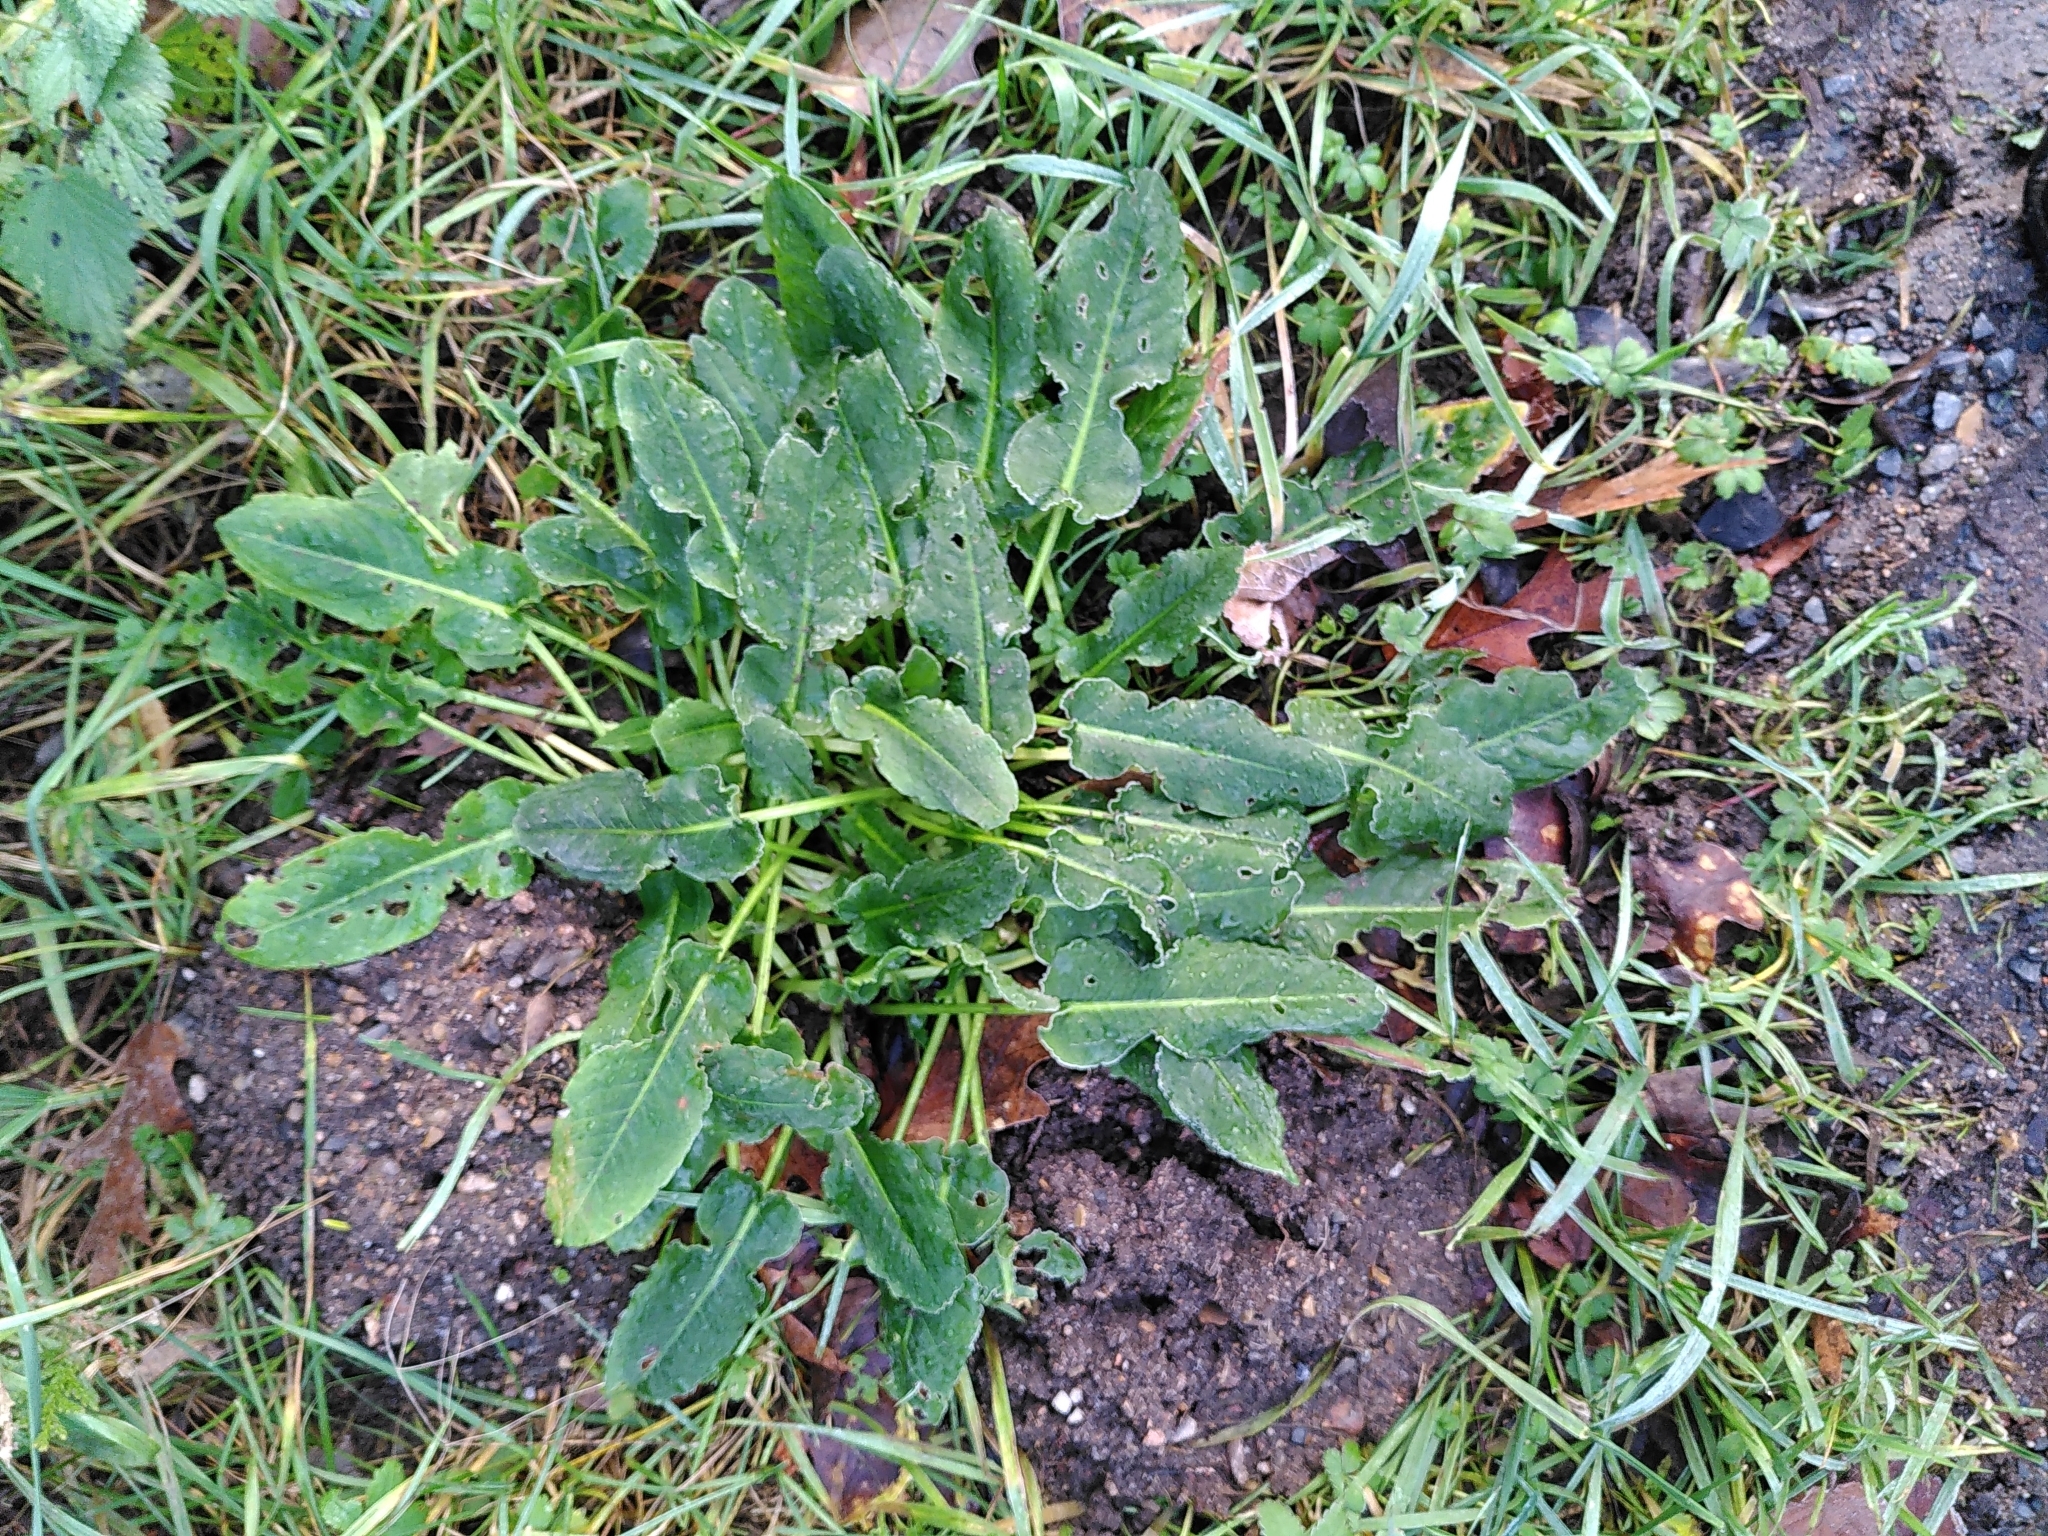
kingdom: Plantae
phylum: Tracheophyta
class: Magnoliopsida
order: Caryophyllales
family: Polygonaceae
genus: Rumex
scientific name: Rumex pulcher
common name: Fiddle dock
